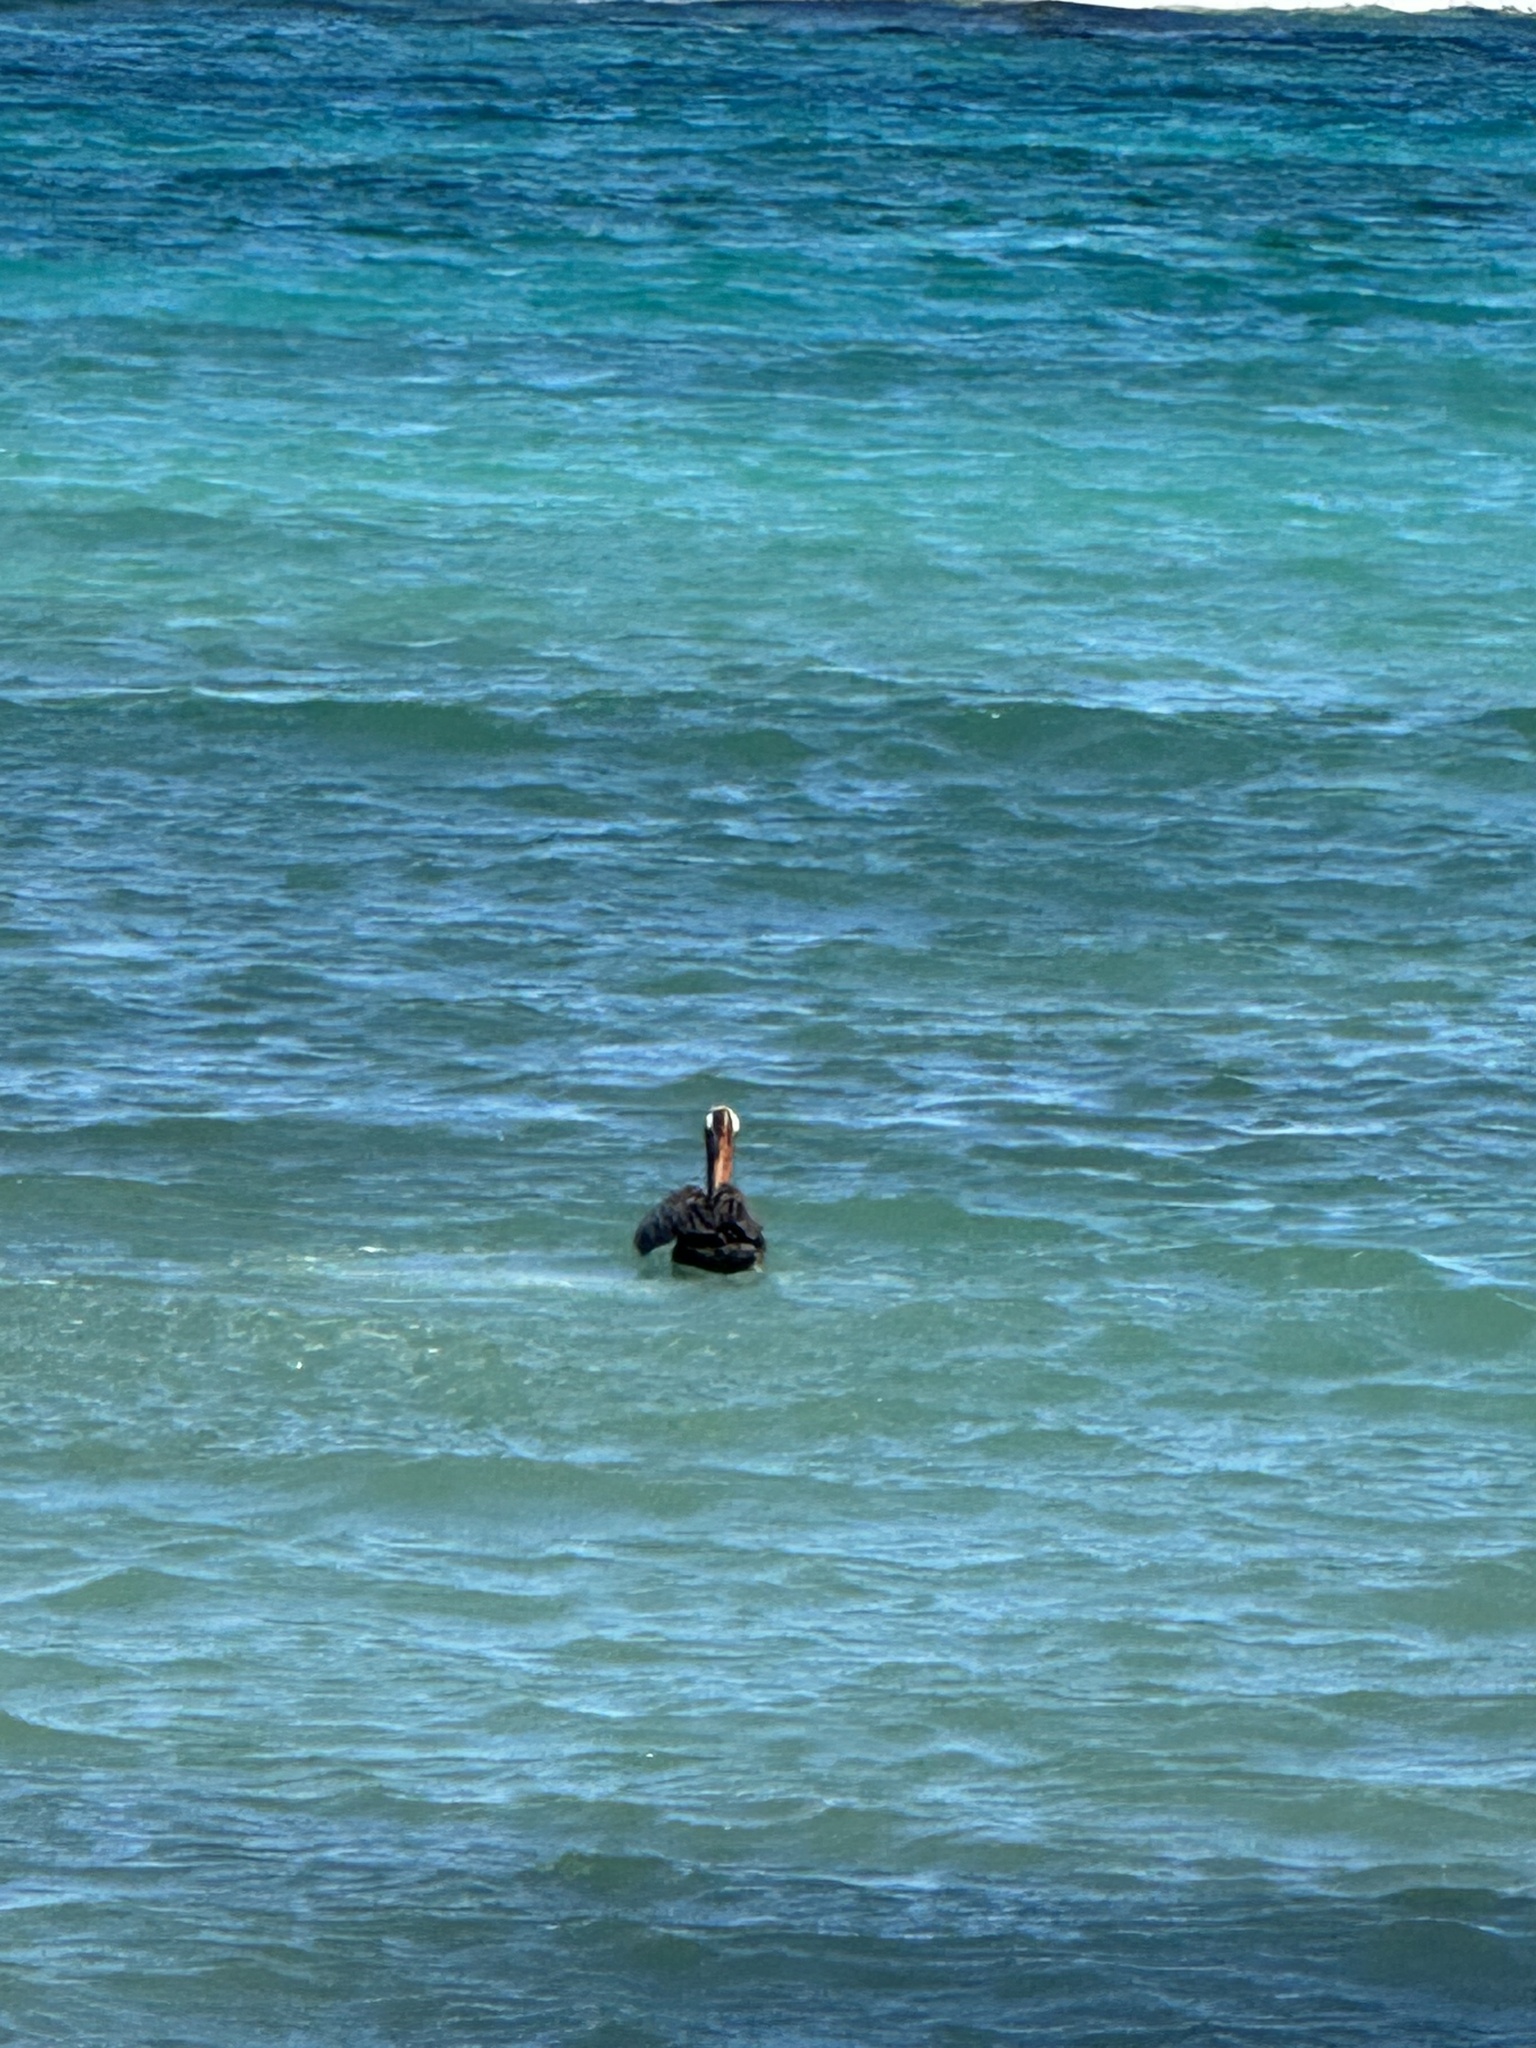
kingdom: Animalia
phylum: Chordata
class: Aves
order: Pelecaniformes
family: Pelecanidae
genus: Pelecanus
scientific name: Pelecanus occidentalis
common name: Brown pelican
